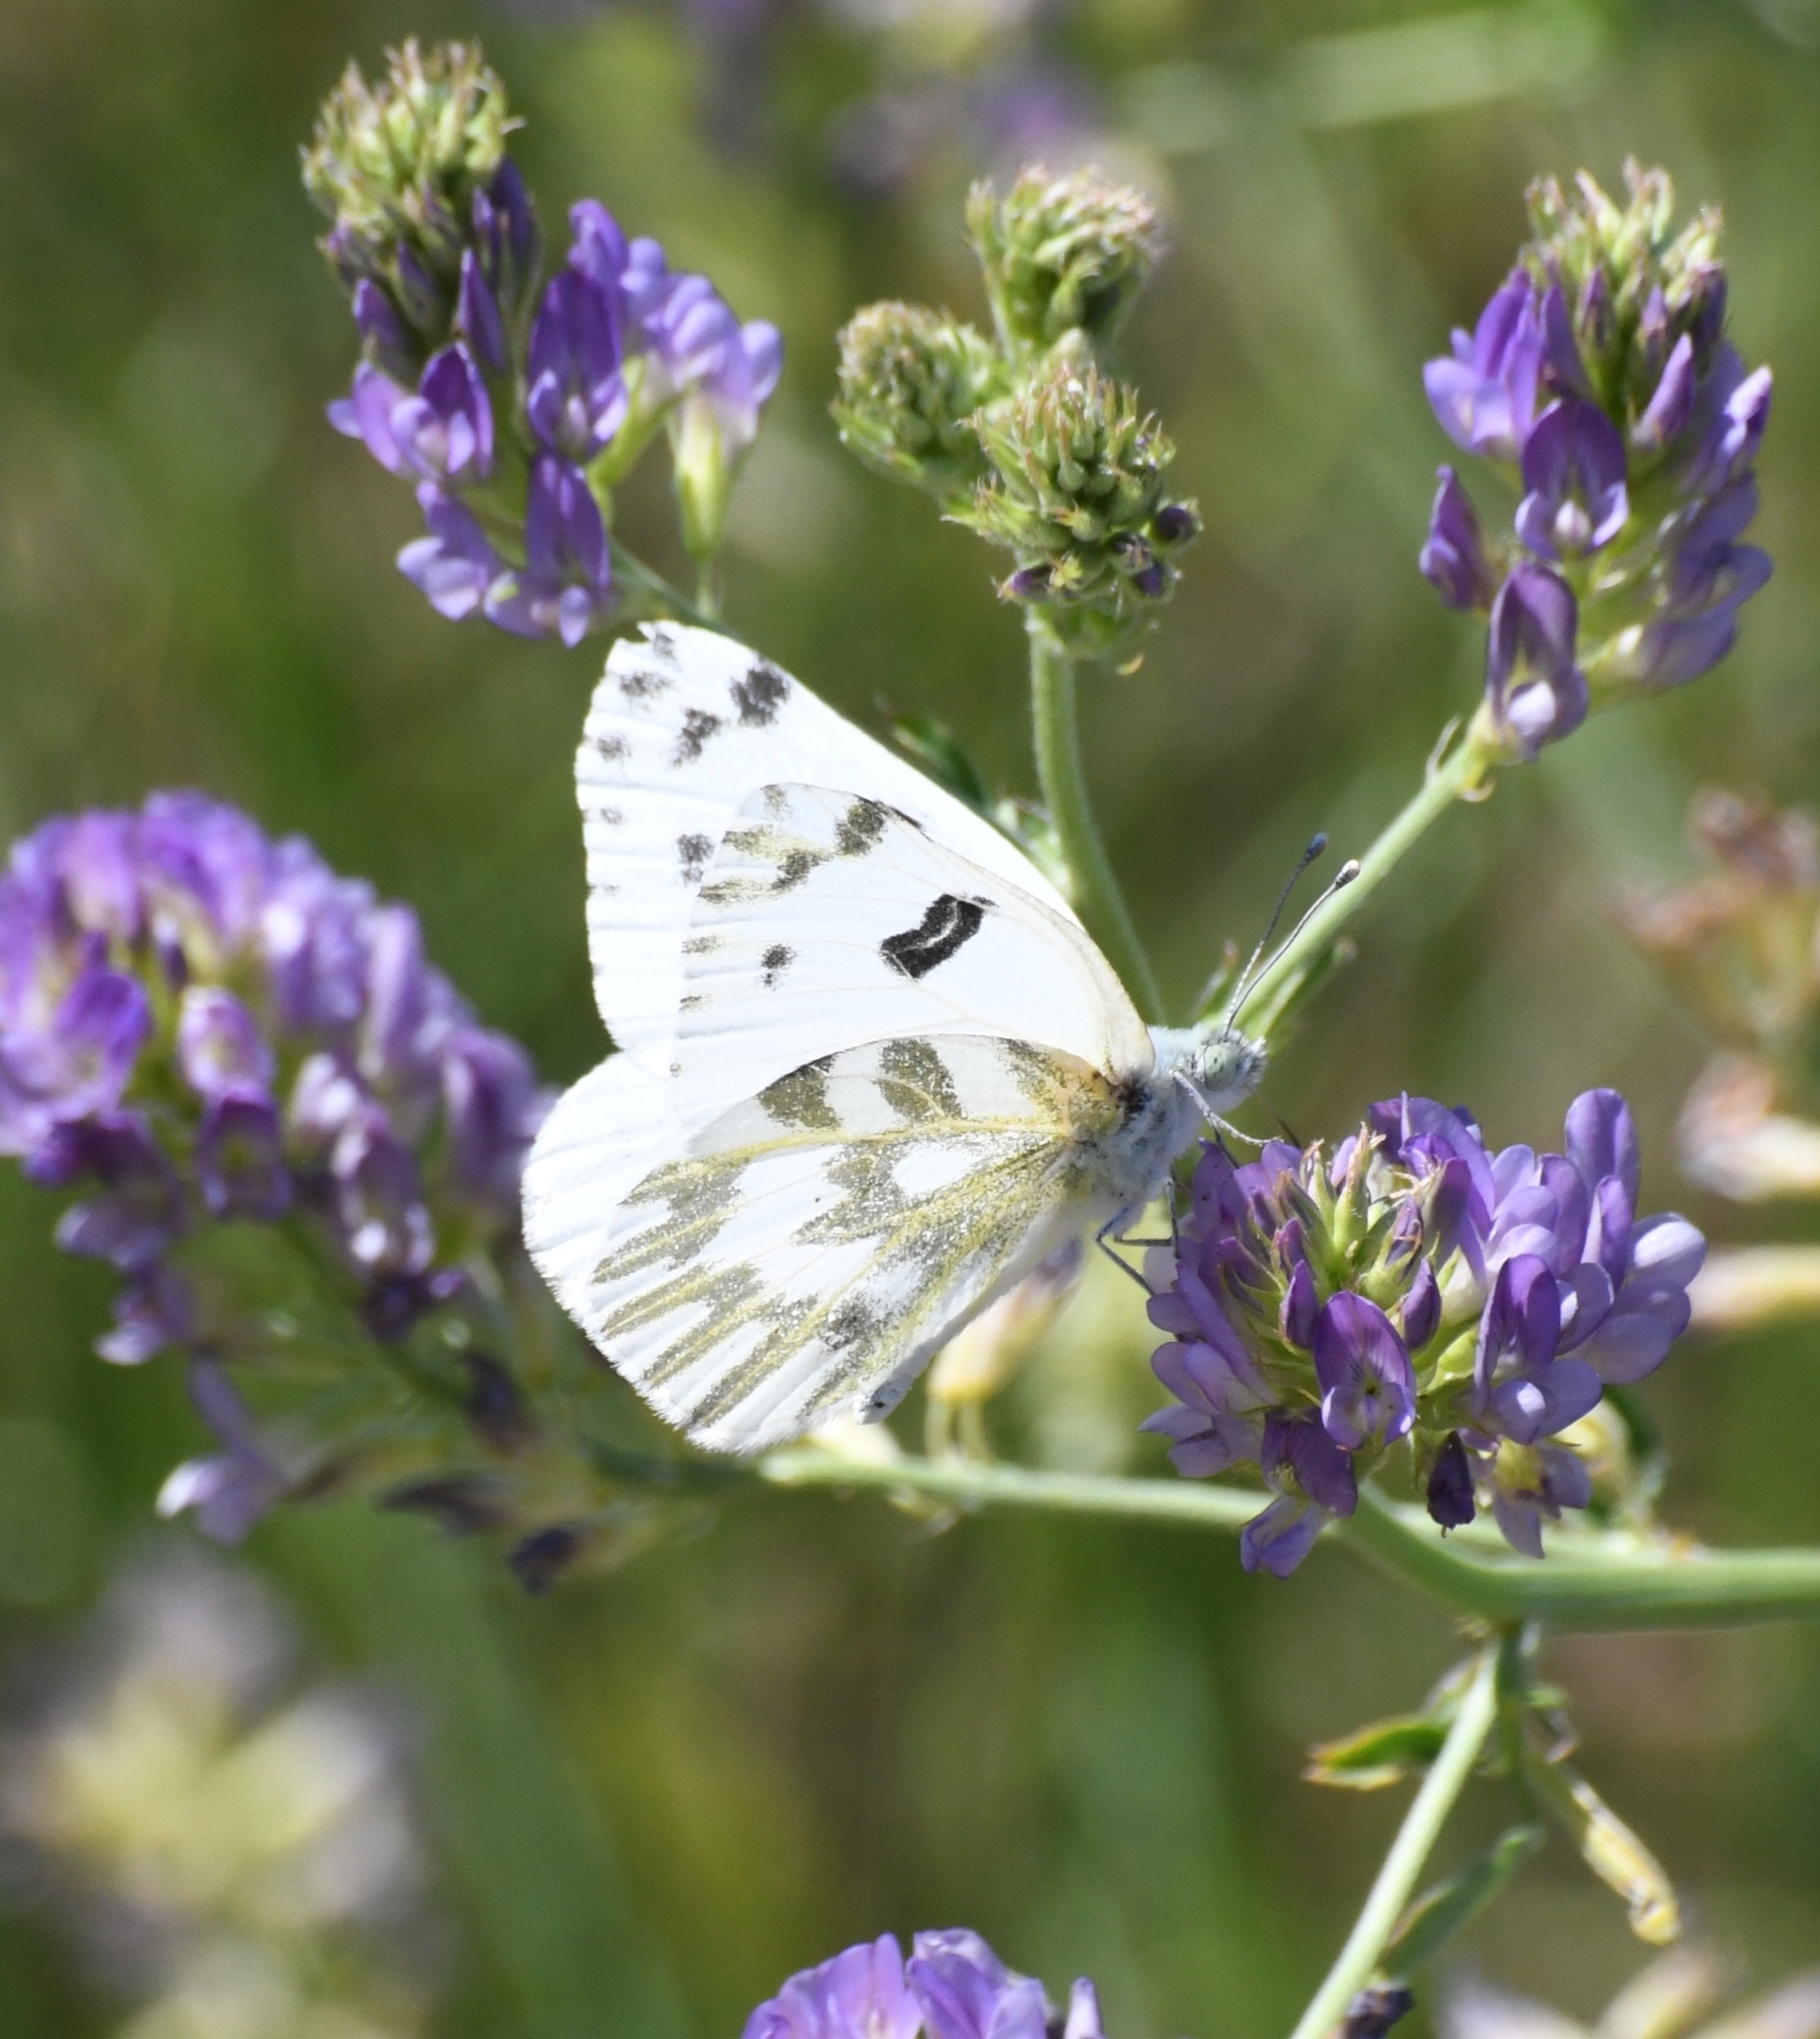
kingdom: Animalia
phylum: Arthropoda
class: Insecta
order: Lepidoptera
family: Pieridae
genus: Pontia
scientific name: Pontia beckerii
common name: Becker's white
